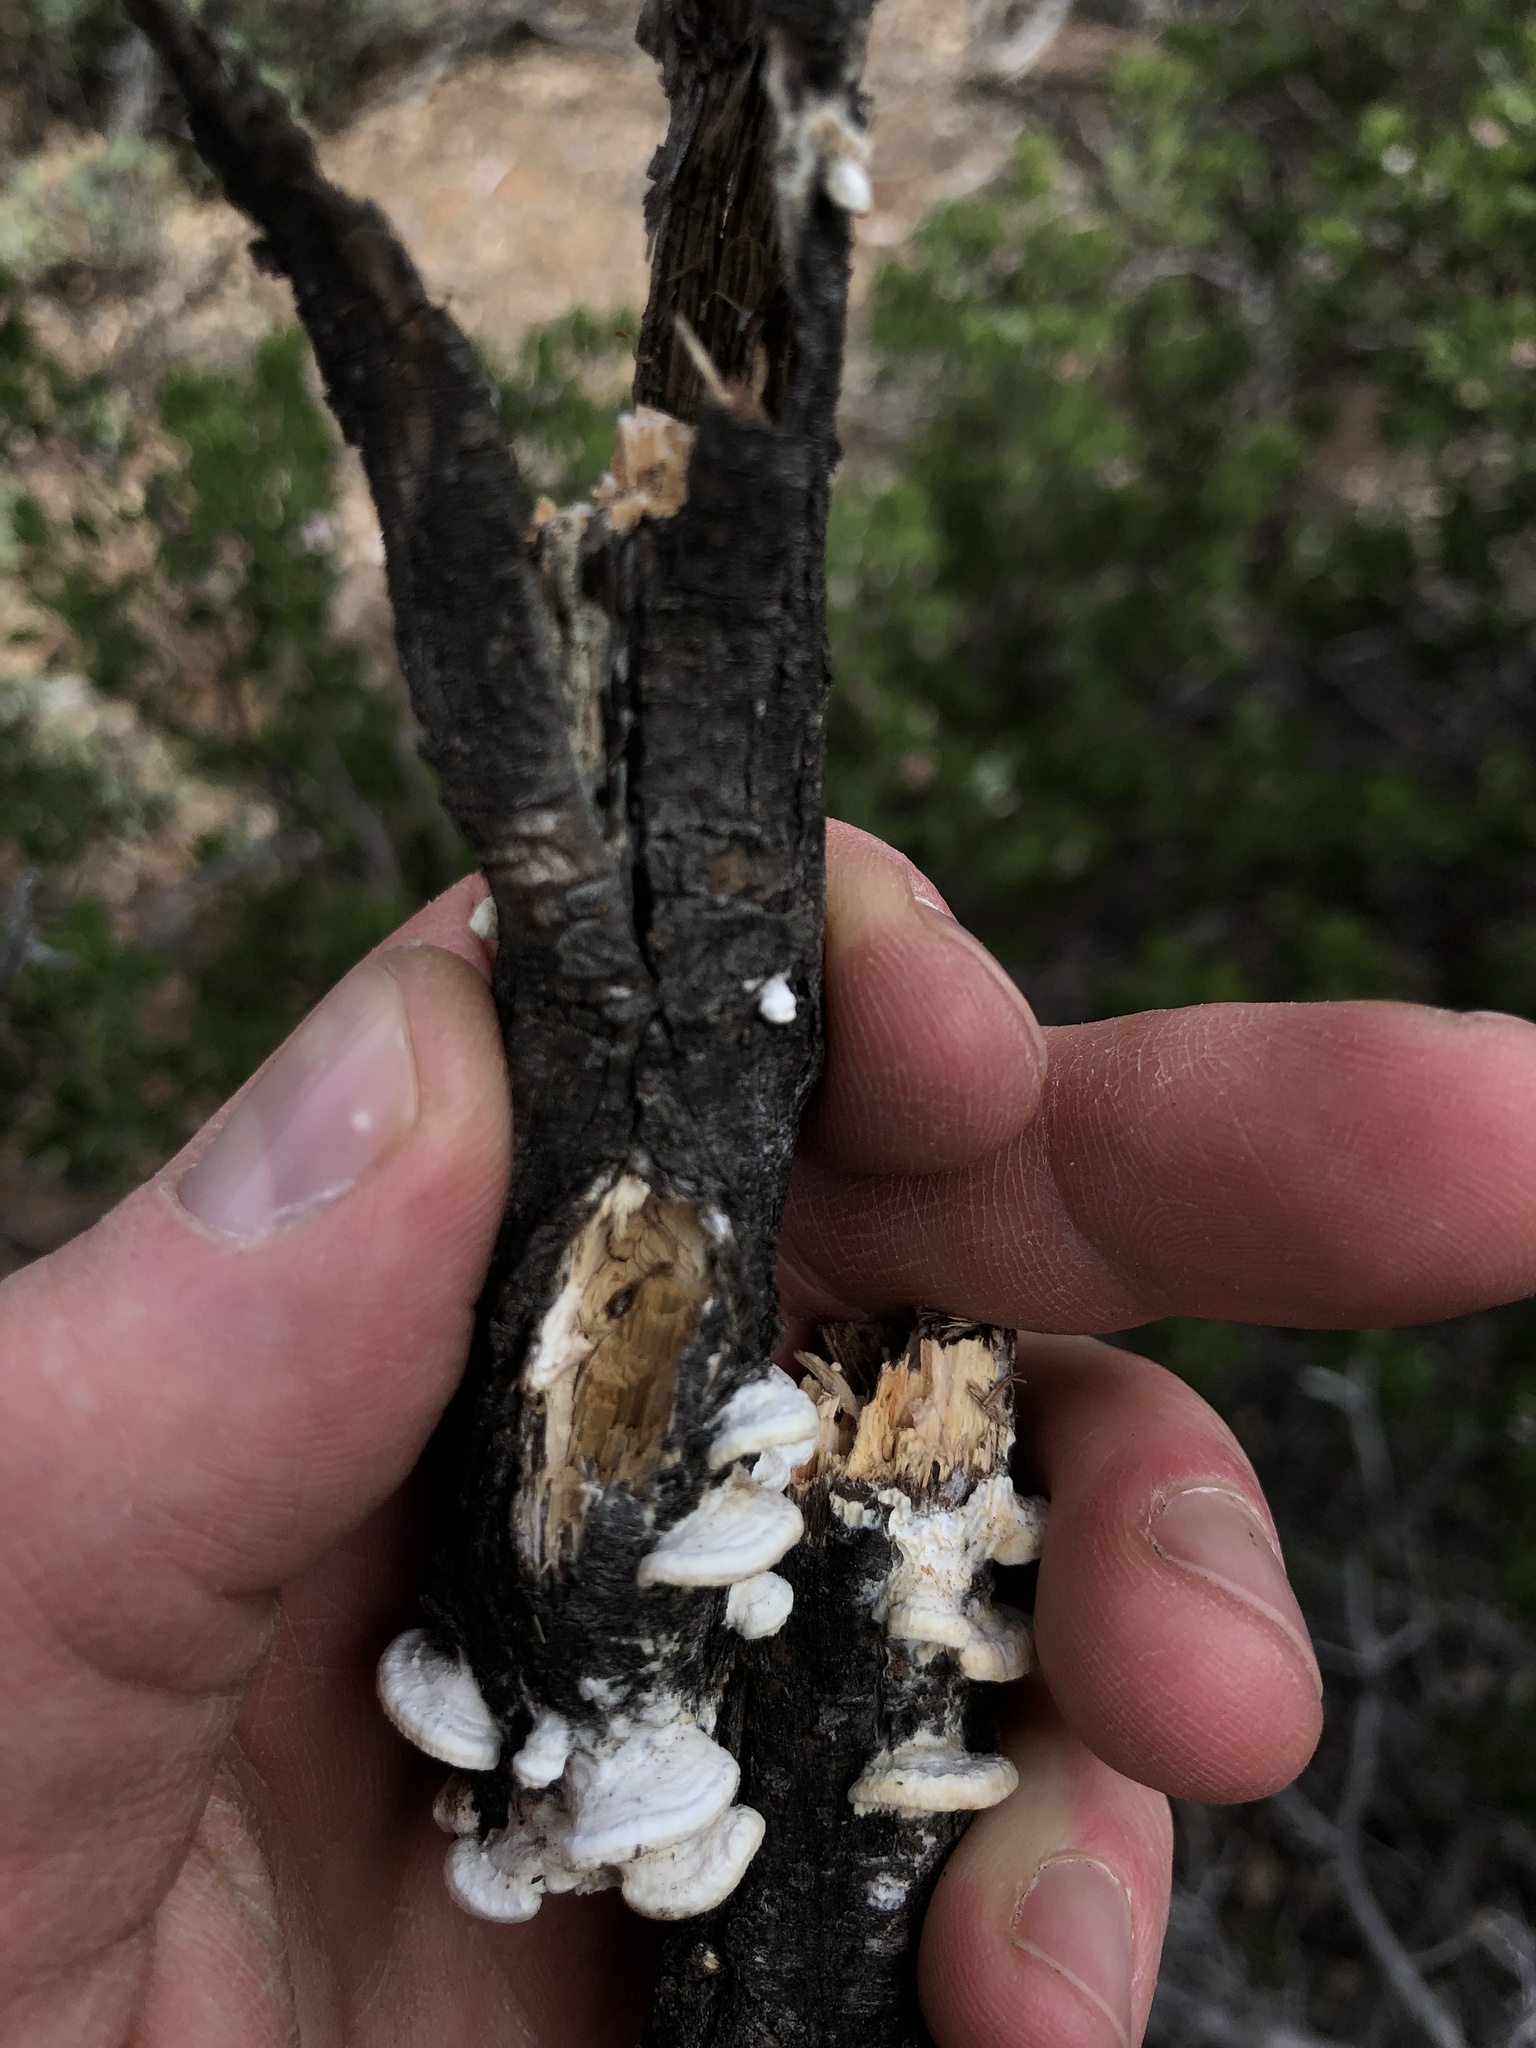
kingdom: Fungi
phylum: Basidiomycota
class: Agaricomycetes
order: Polyporales
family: Fomitopsidaceae
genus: Antrodia
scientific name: Antrodia favescens
